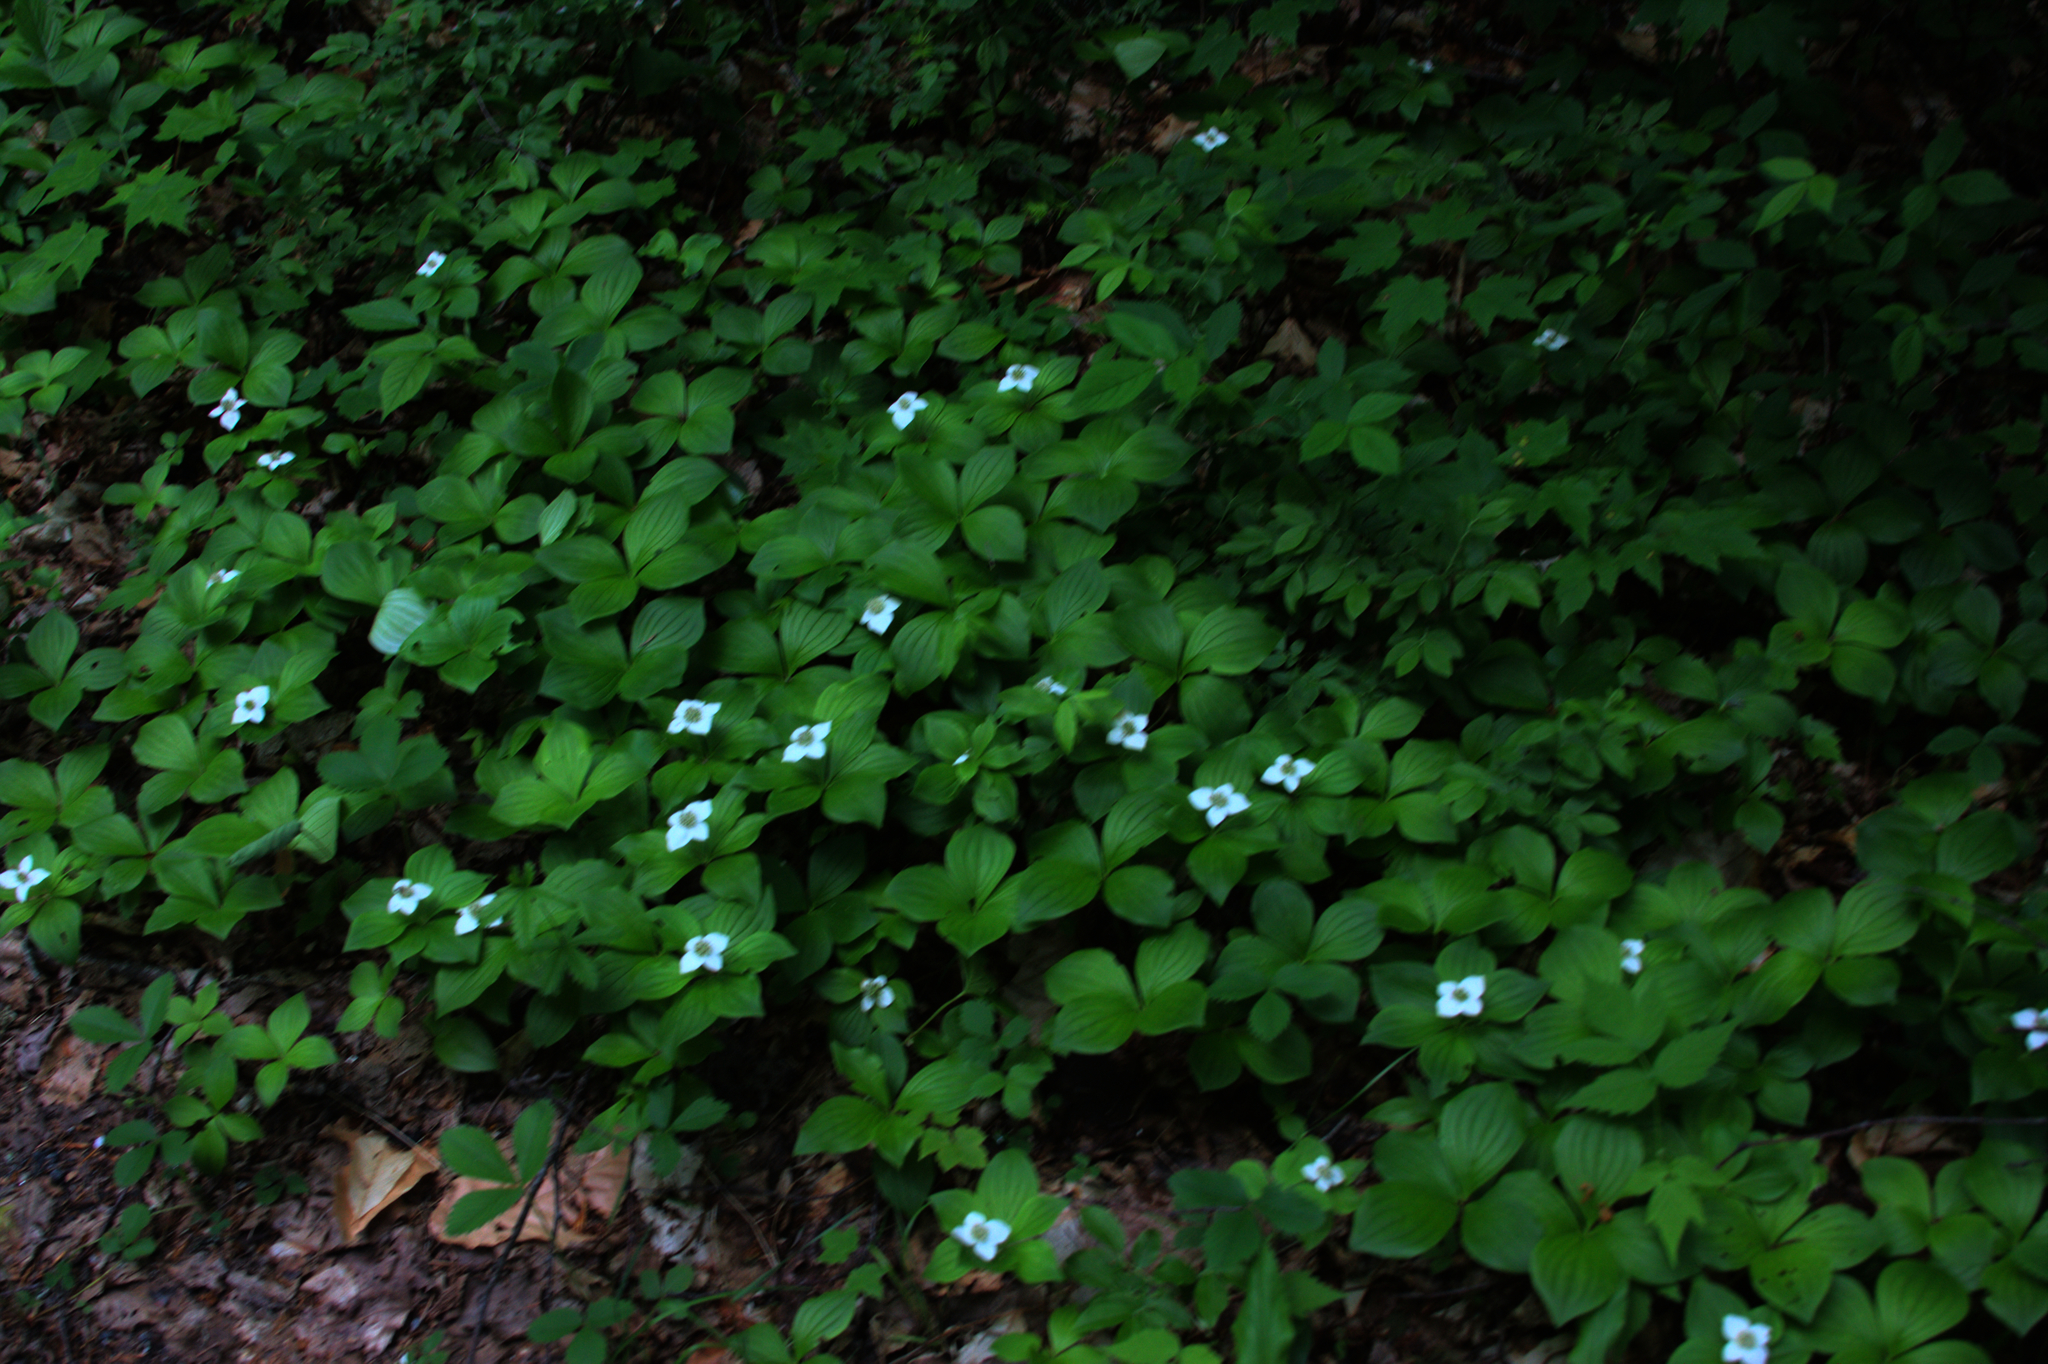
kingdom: Plantae
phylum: Tracheophyta
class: Magnoliopsida
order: Cornales
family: Cornaceae
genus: Cornus
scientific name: Cornus canadensis
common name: Creeping dogwood
